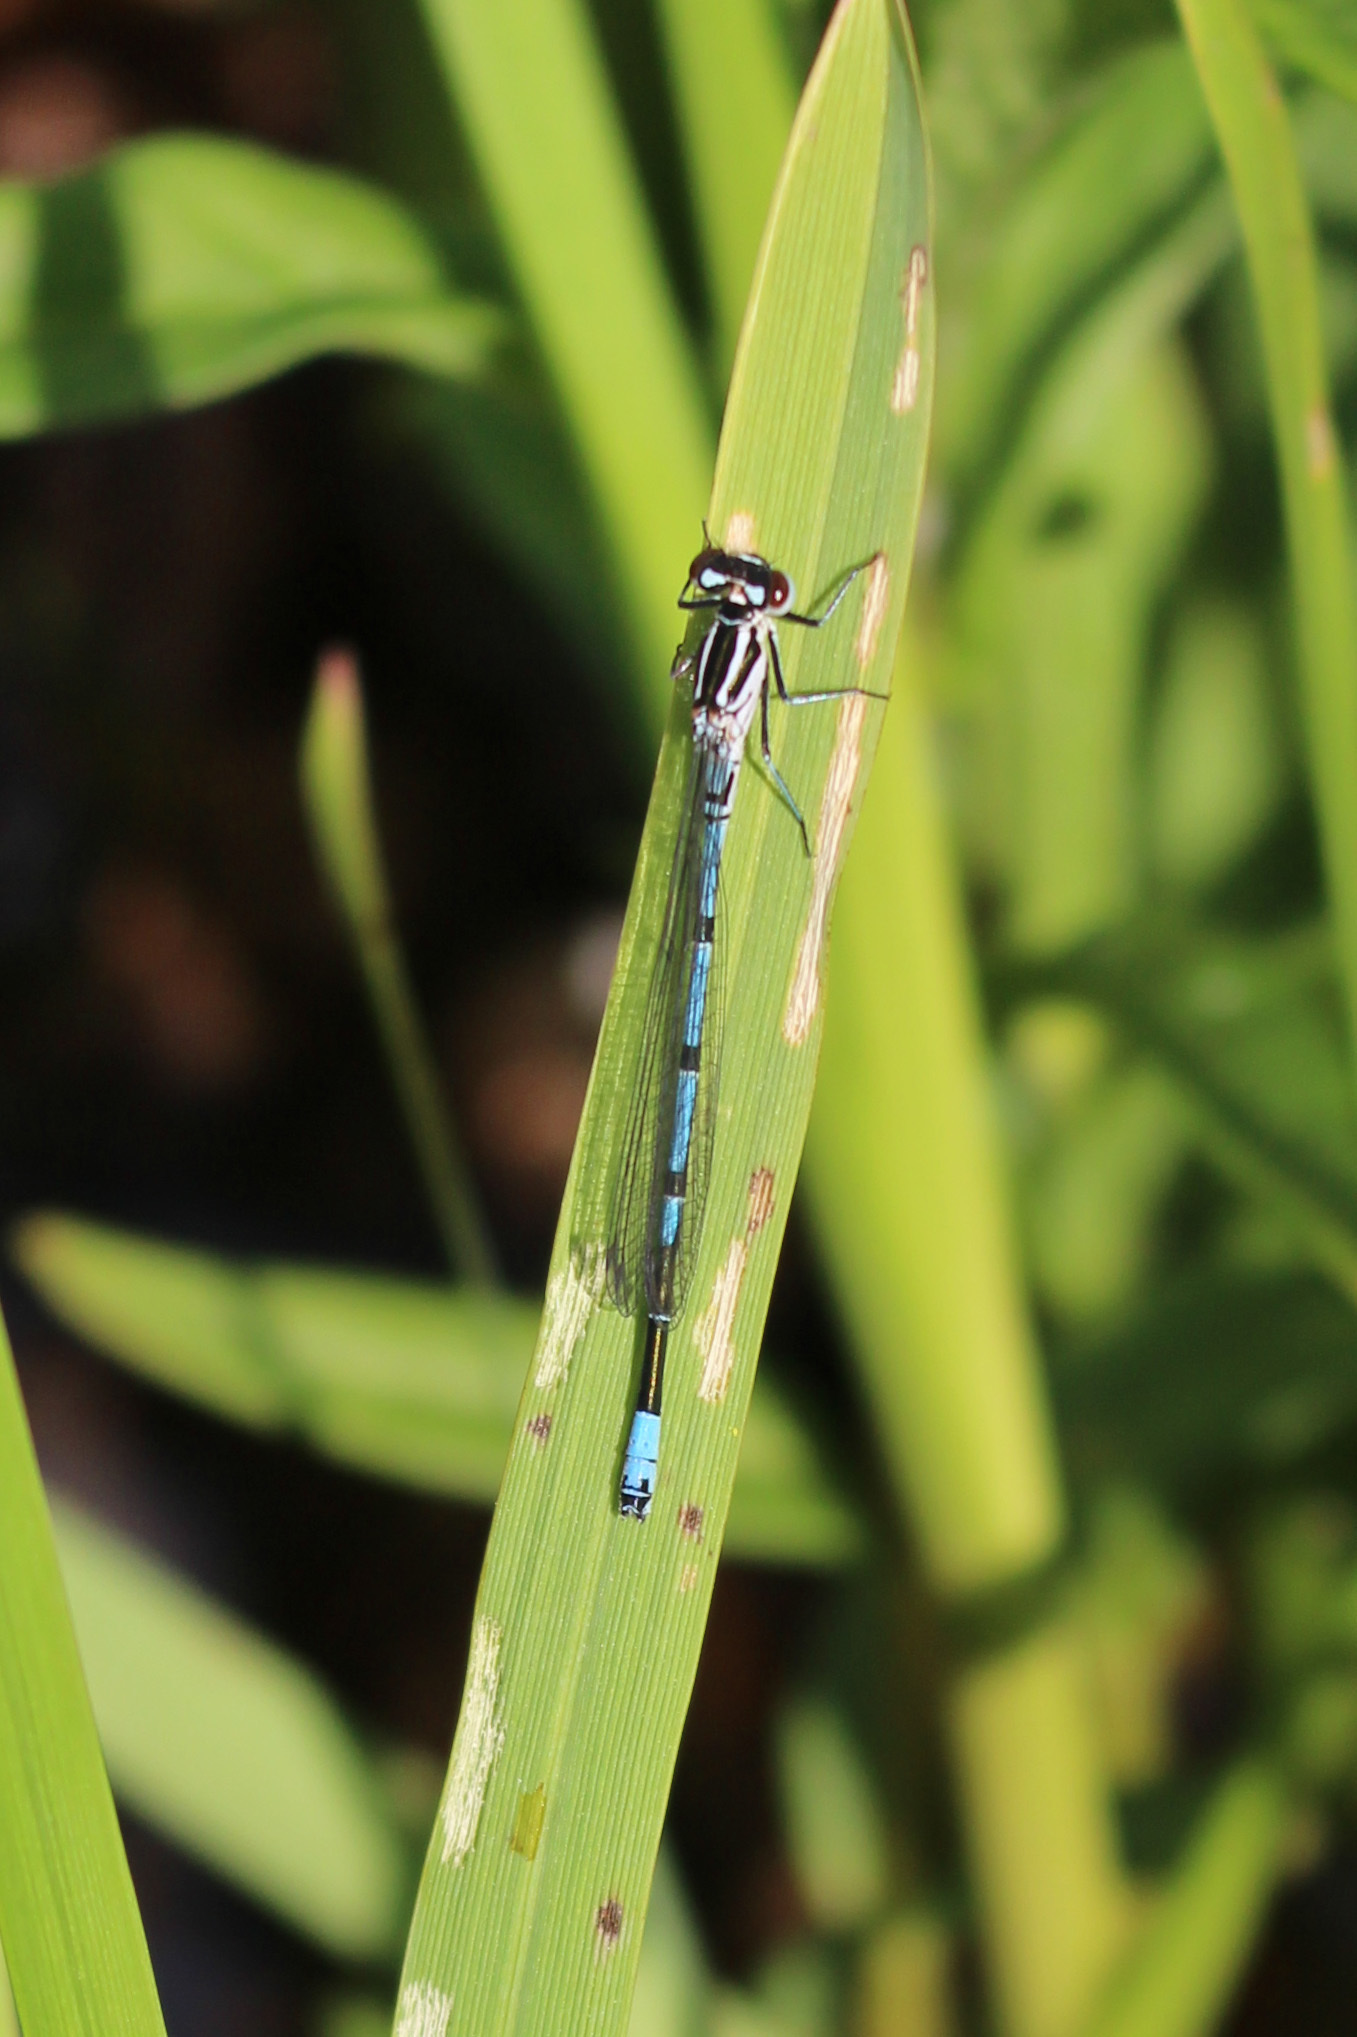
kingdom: Animalia
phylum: Arthropoda
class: Insecta
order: Odonata
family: Coenagrionidae
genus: Coenagrion
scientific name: Coenagrion puella
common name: Azure damselfly
